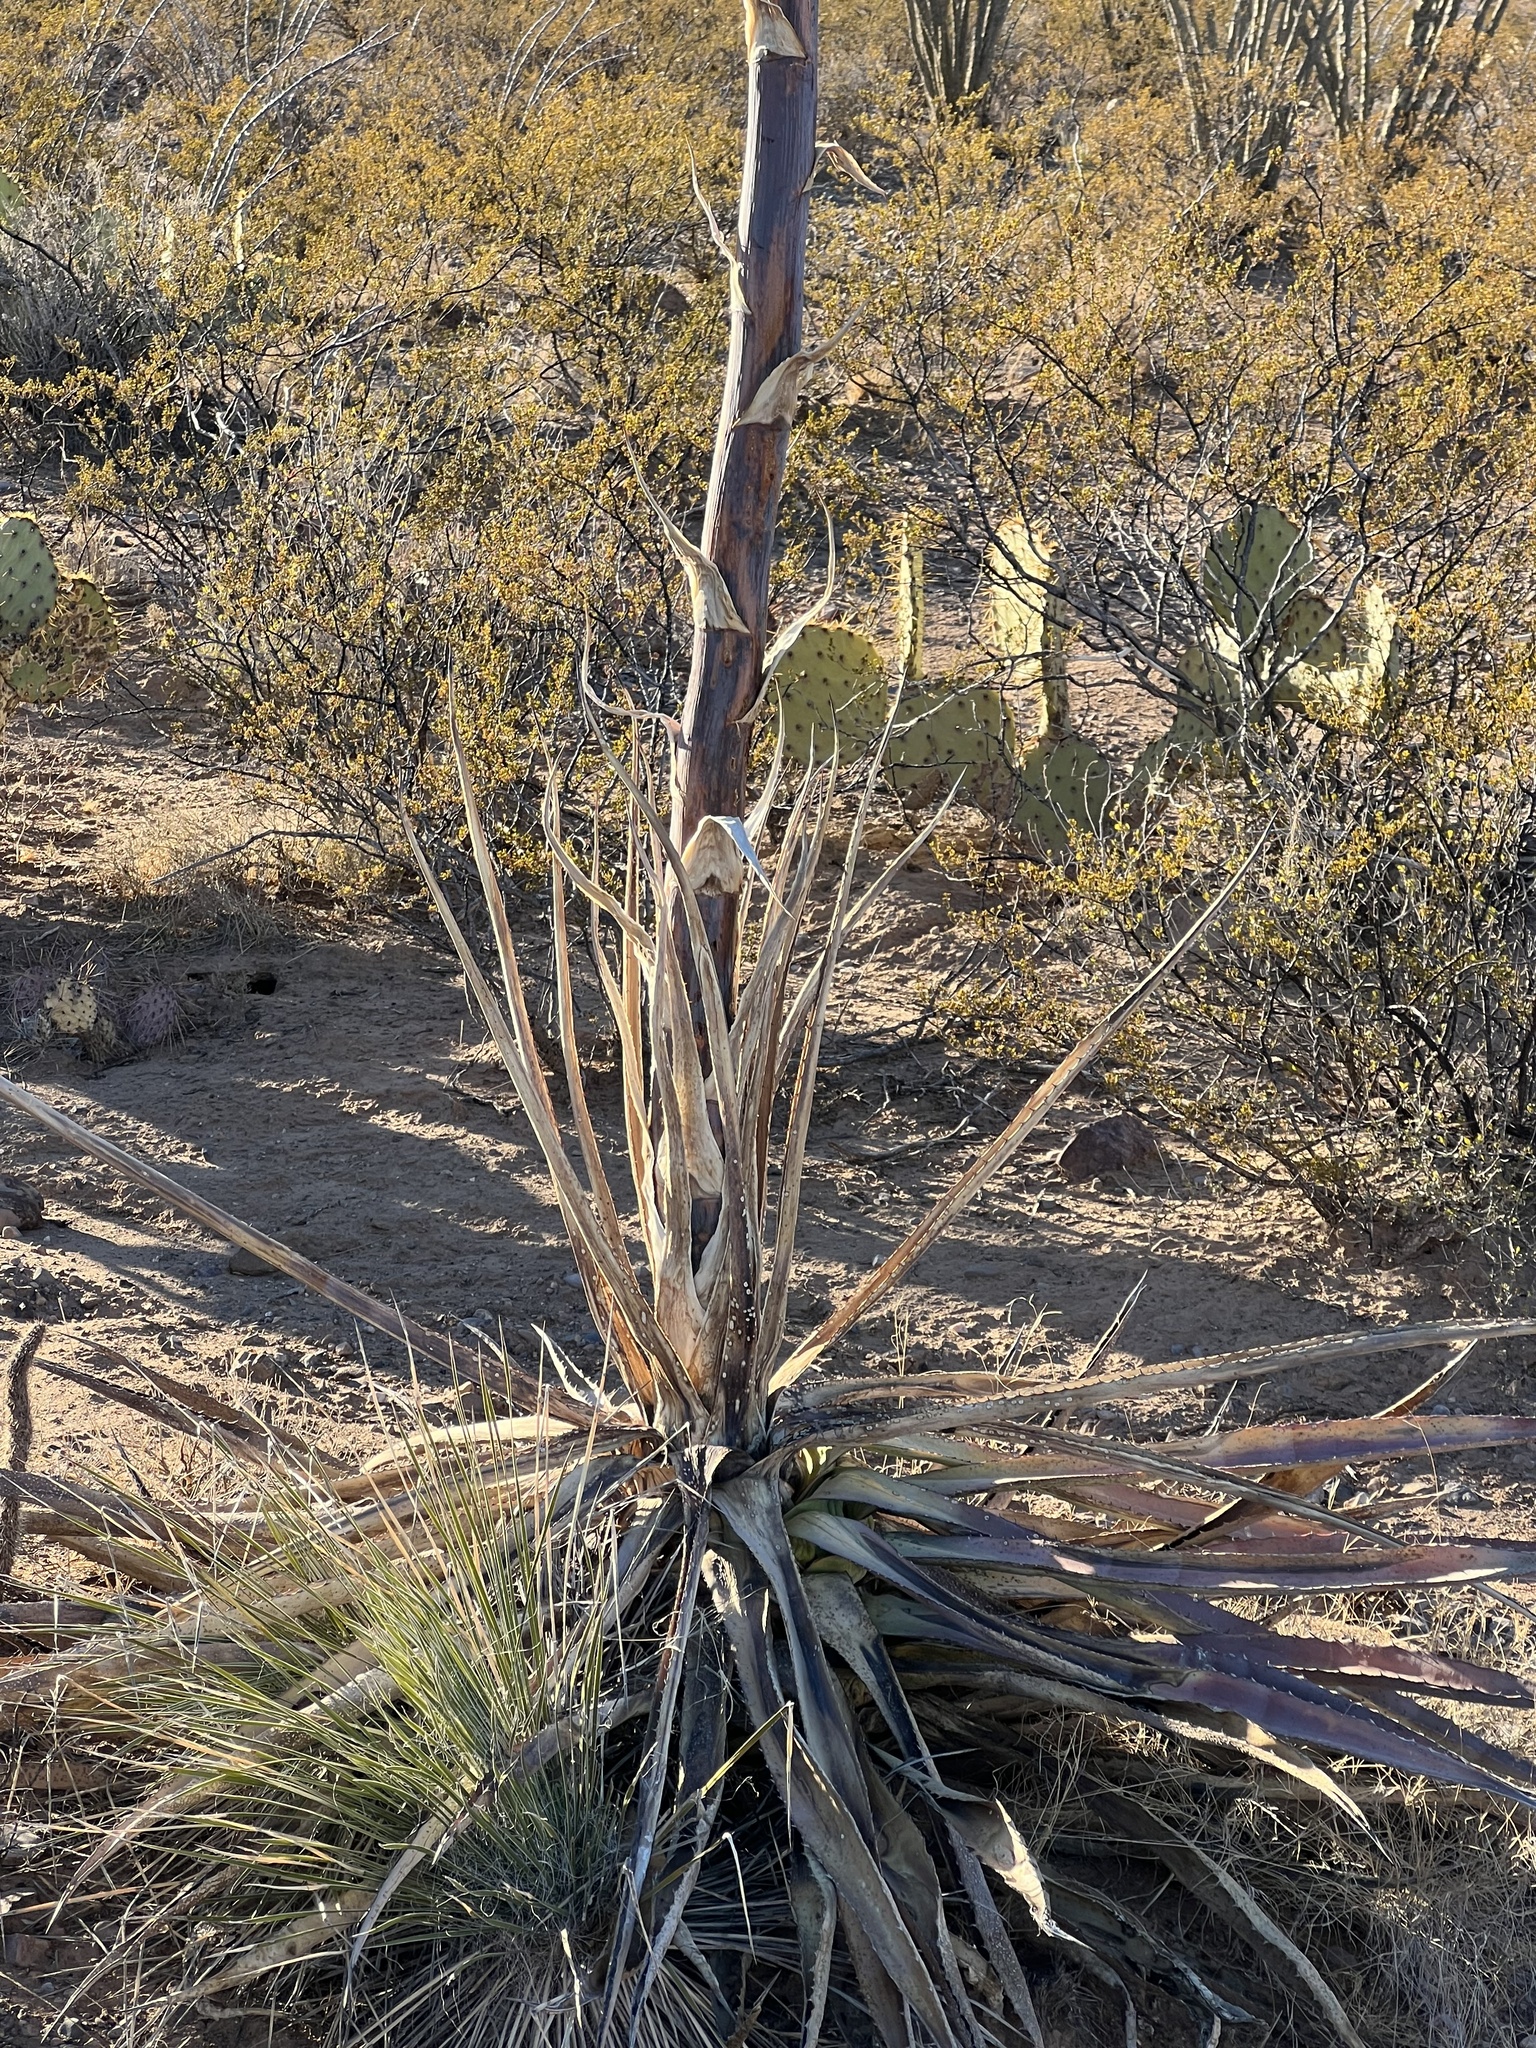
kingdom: Plantae
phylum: Tracheophyta
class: Liliopsida
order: Asparagales
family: Asparagaceae
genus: Agave
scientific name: Agave palmeri
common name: Palmer agave
